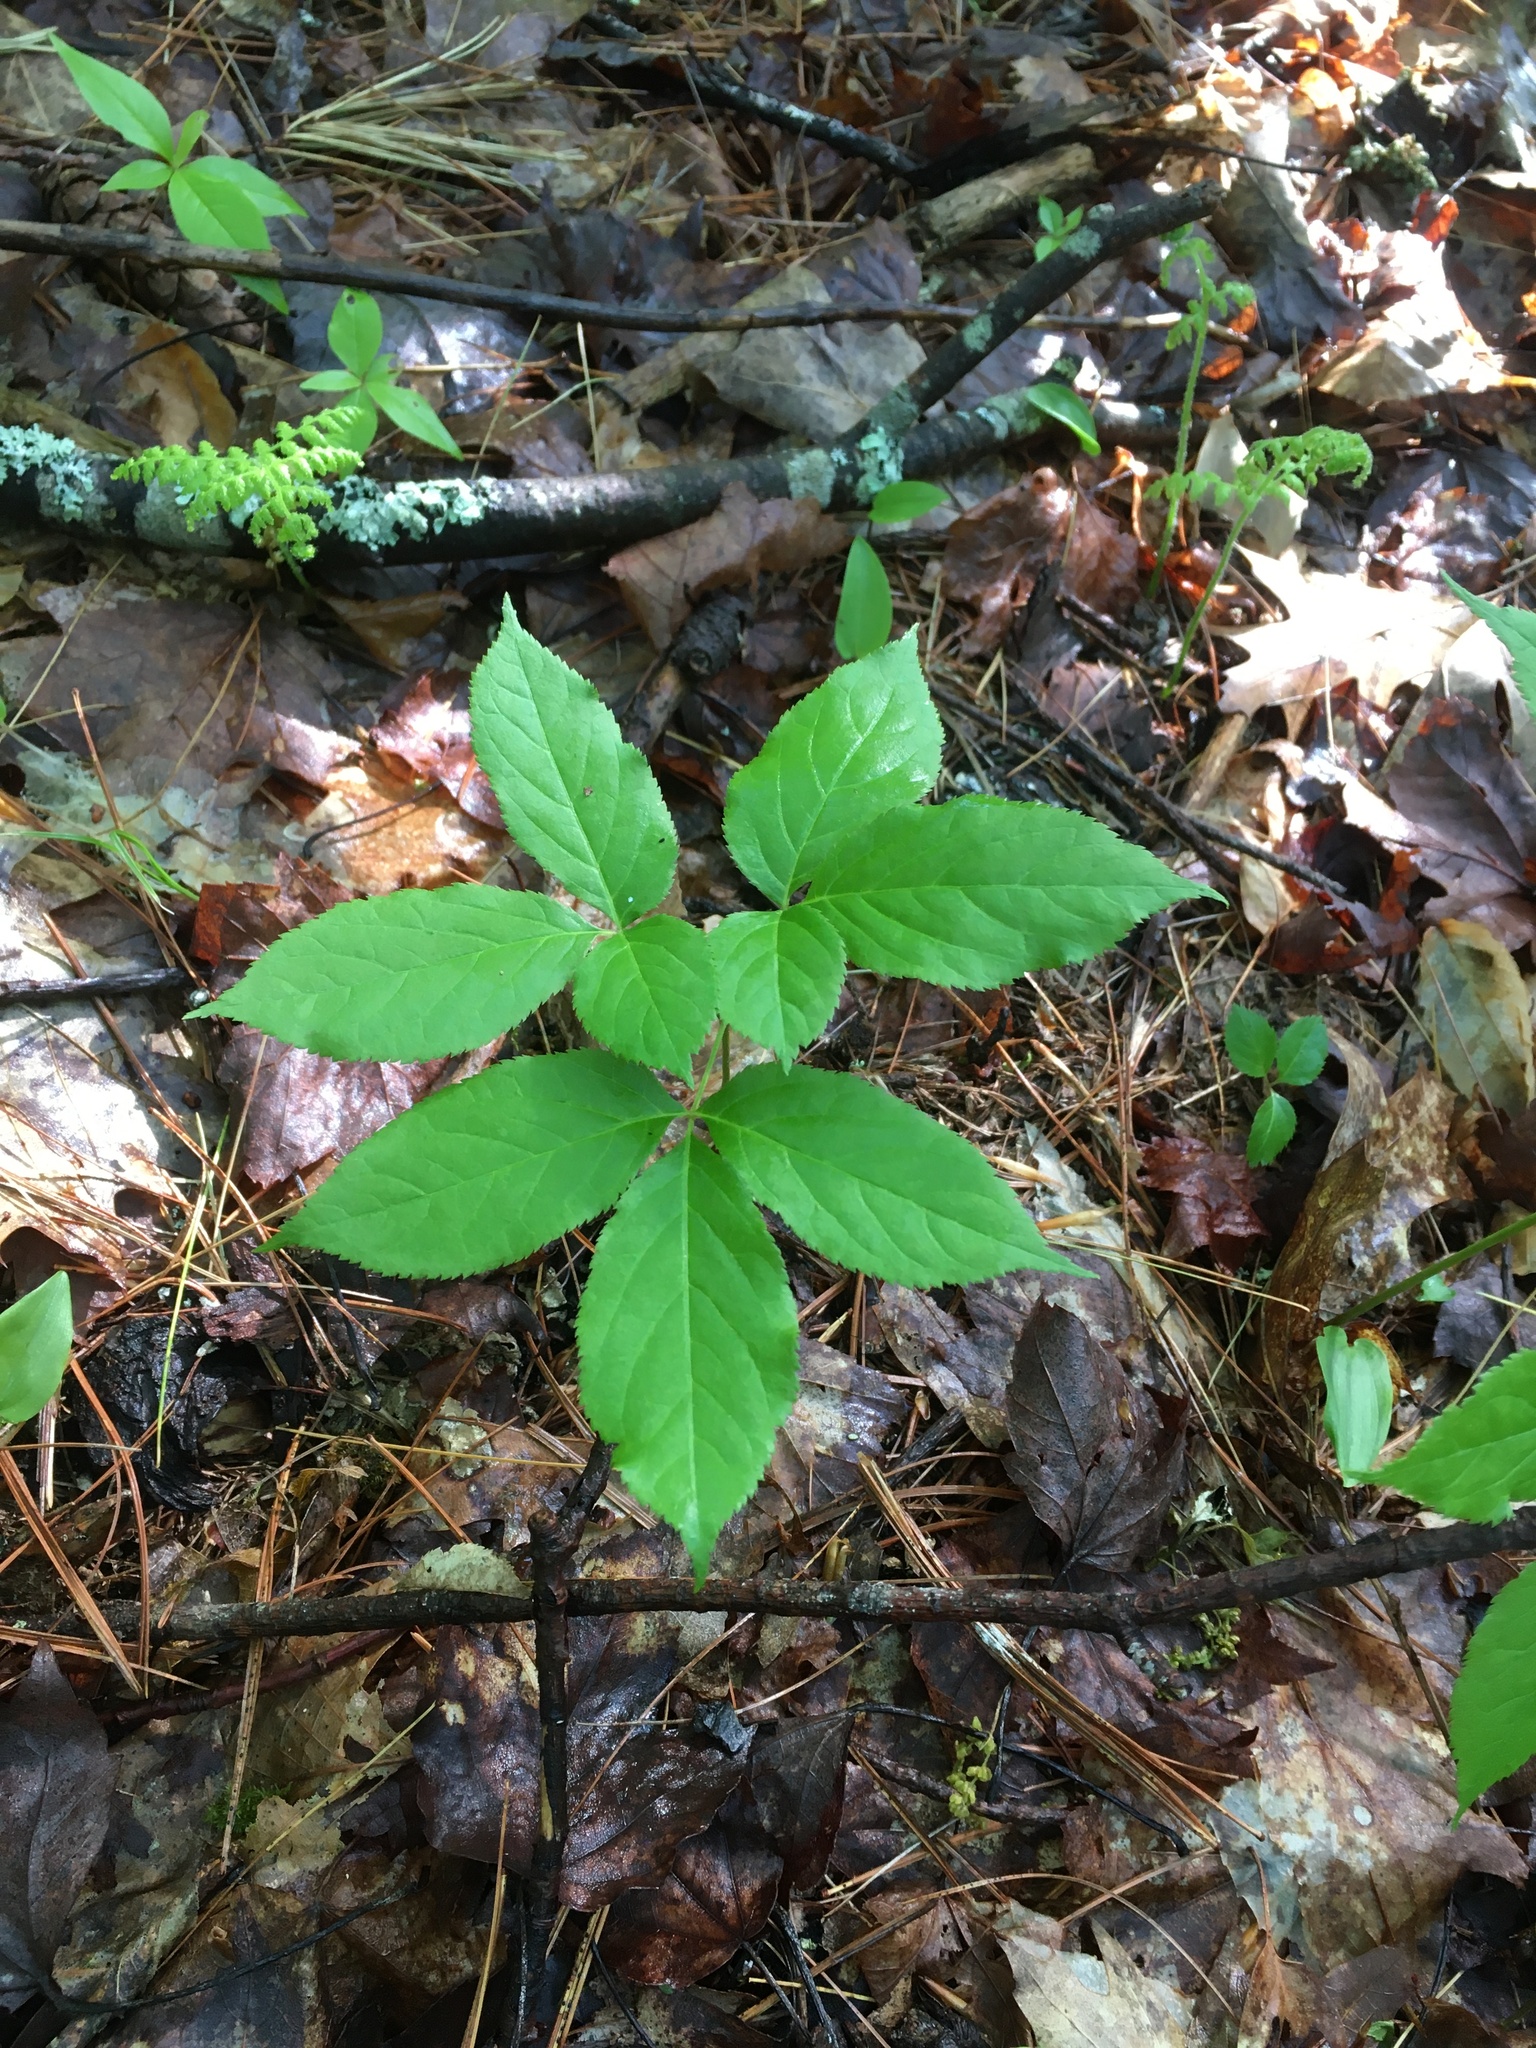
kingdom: Plantae
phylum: Tracheophyta
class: Magnoliopsida
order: Apiales
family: Araliaceae
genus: Aralia
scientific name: Aralia nudicaulis
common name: Wild sarsaparilla
